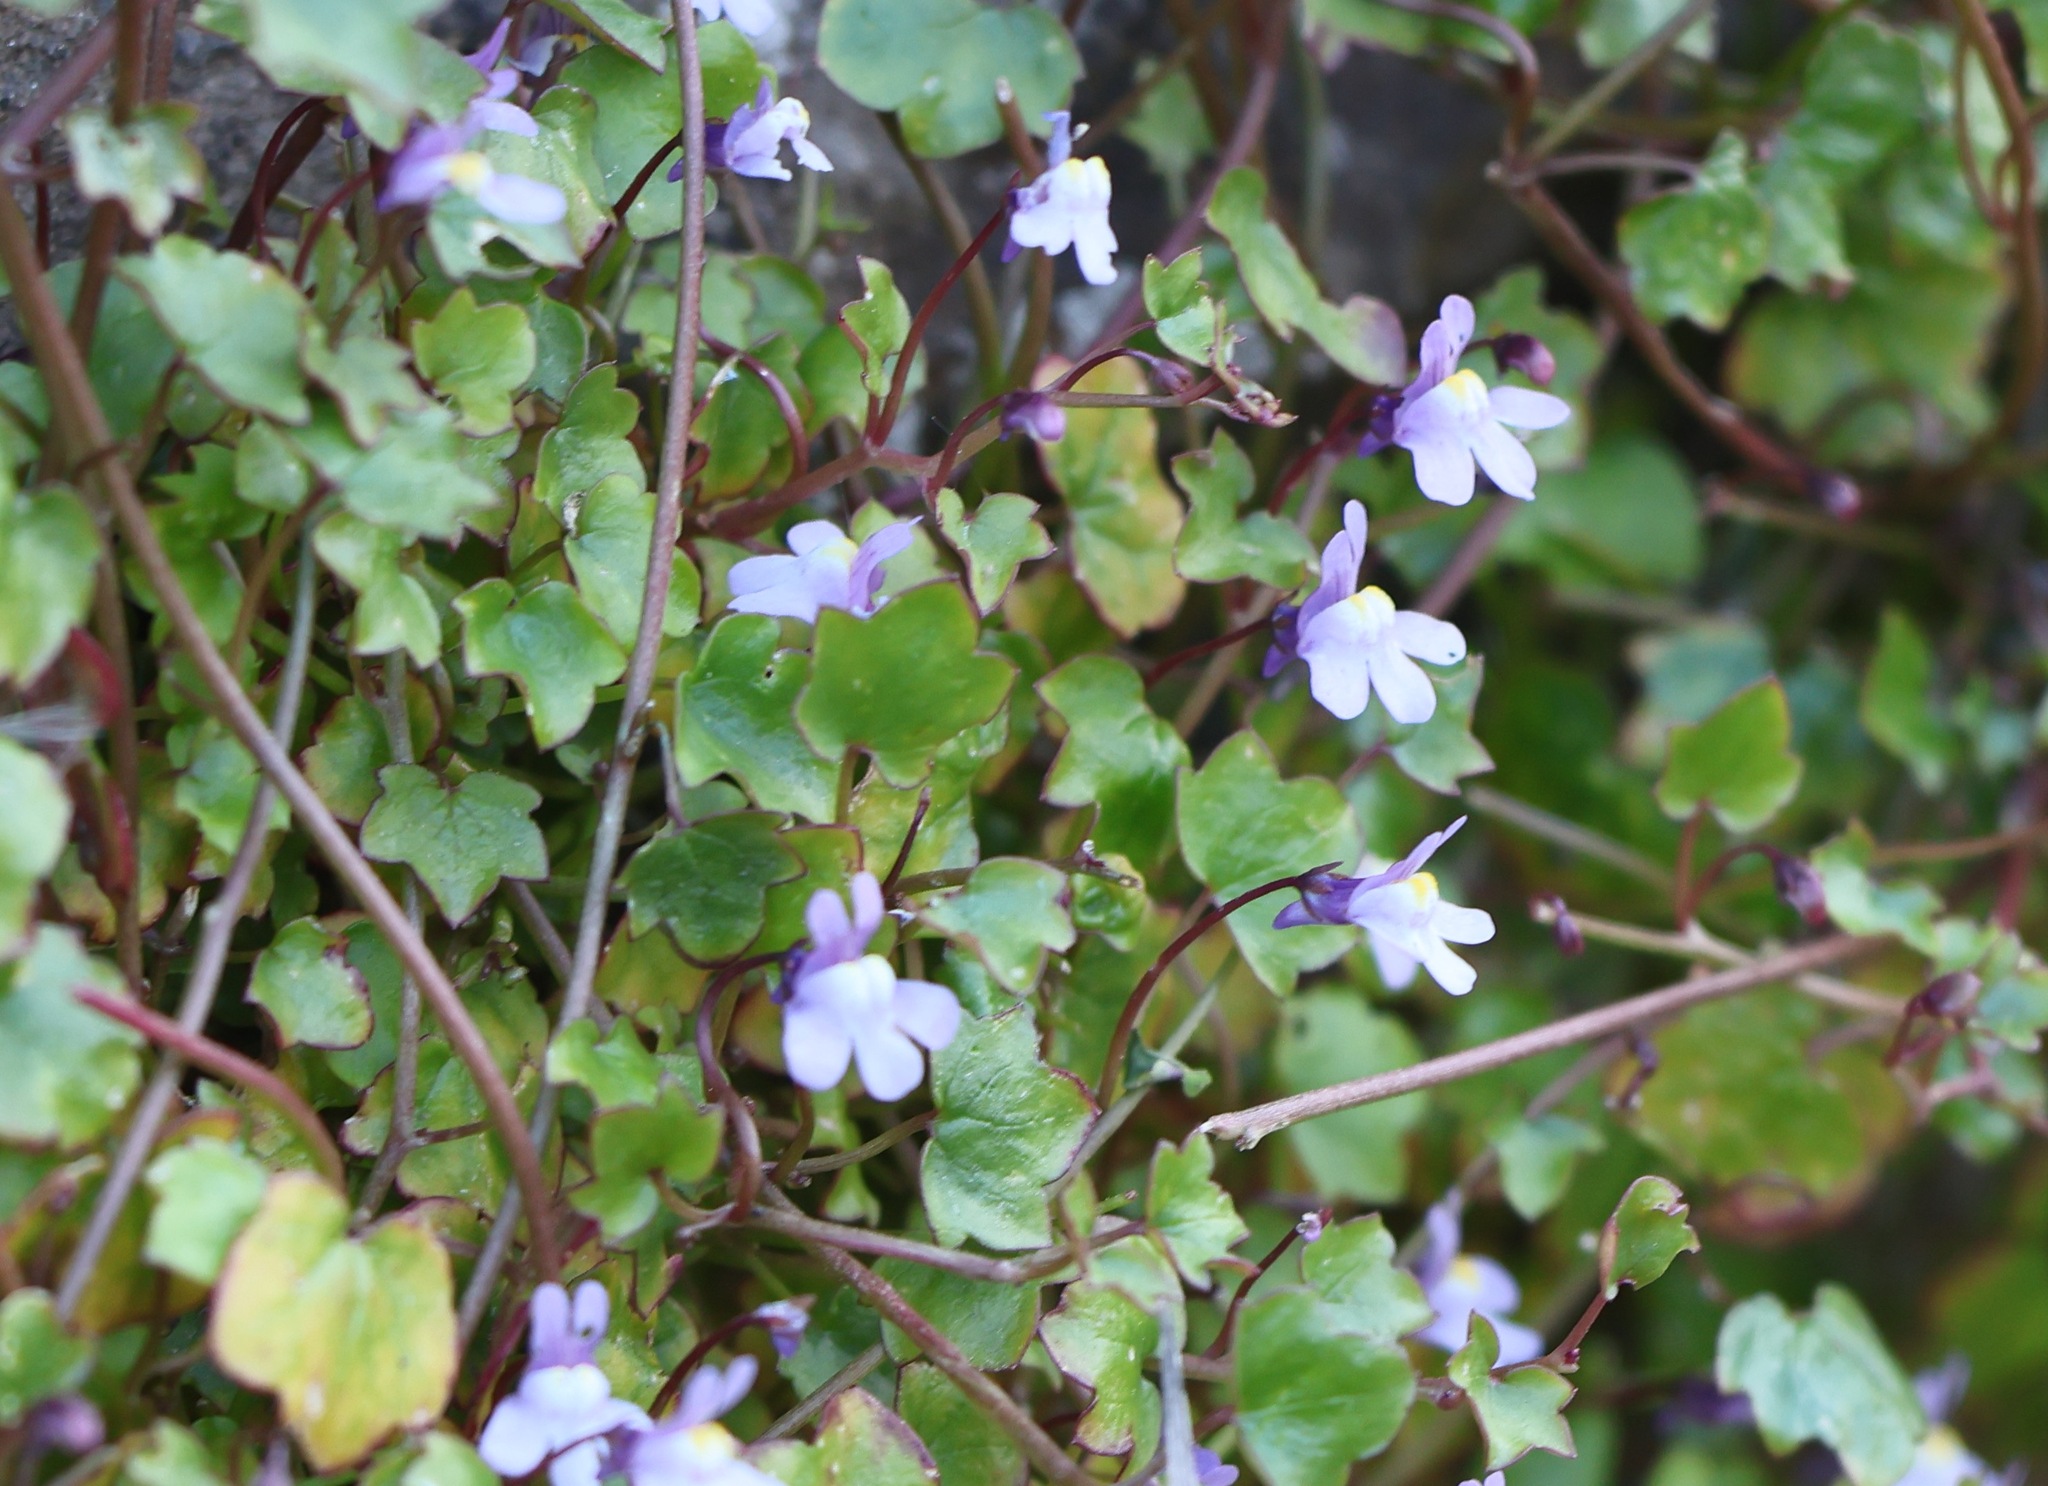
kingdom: Plantae
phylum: Tracheophyta
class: Magnoliopsida
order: Lamiales
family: Plantaginaceae
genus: Cymbalaria
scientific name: Cymbalaria muralis
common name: Ivy-leaved toadflax
